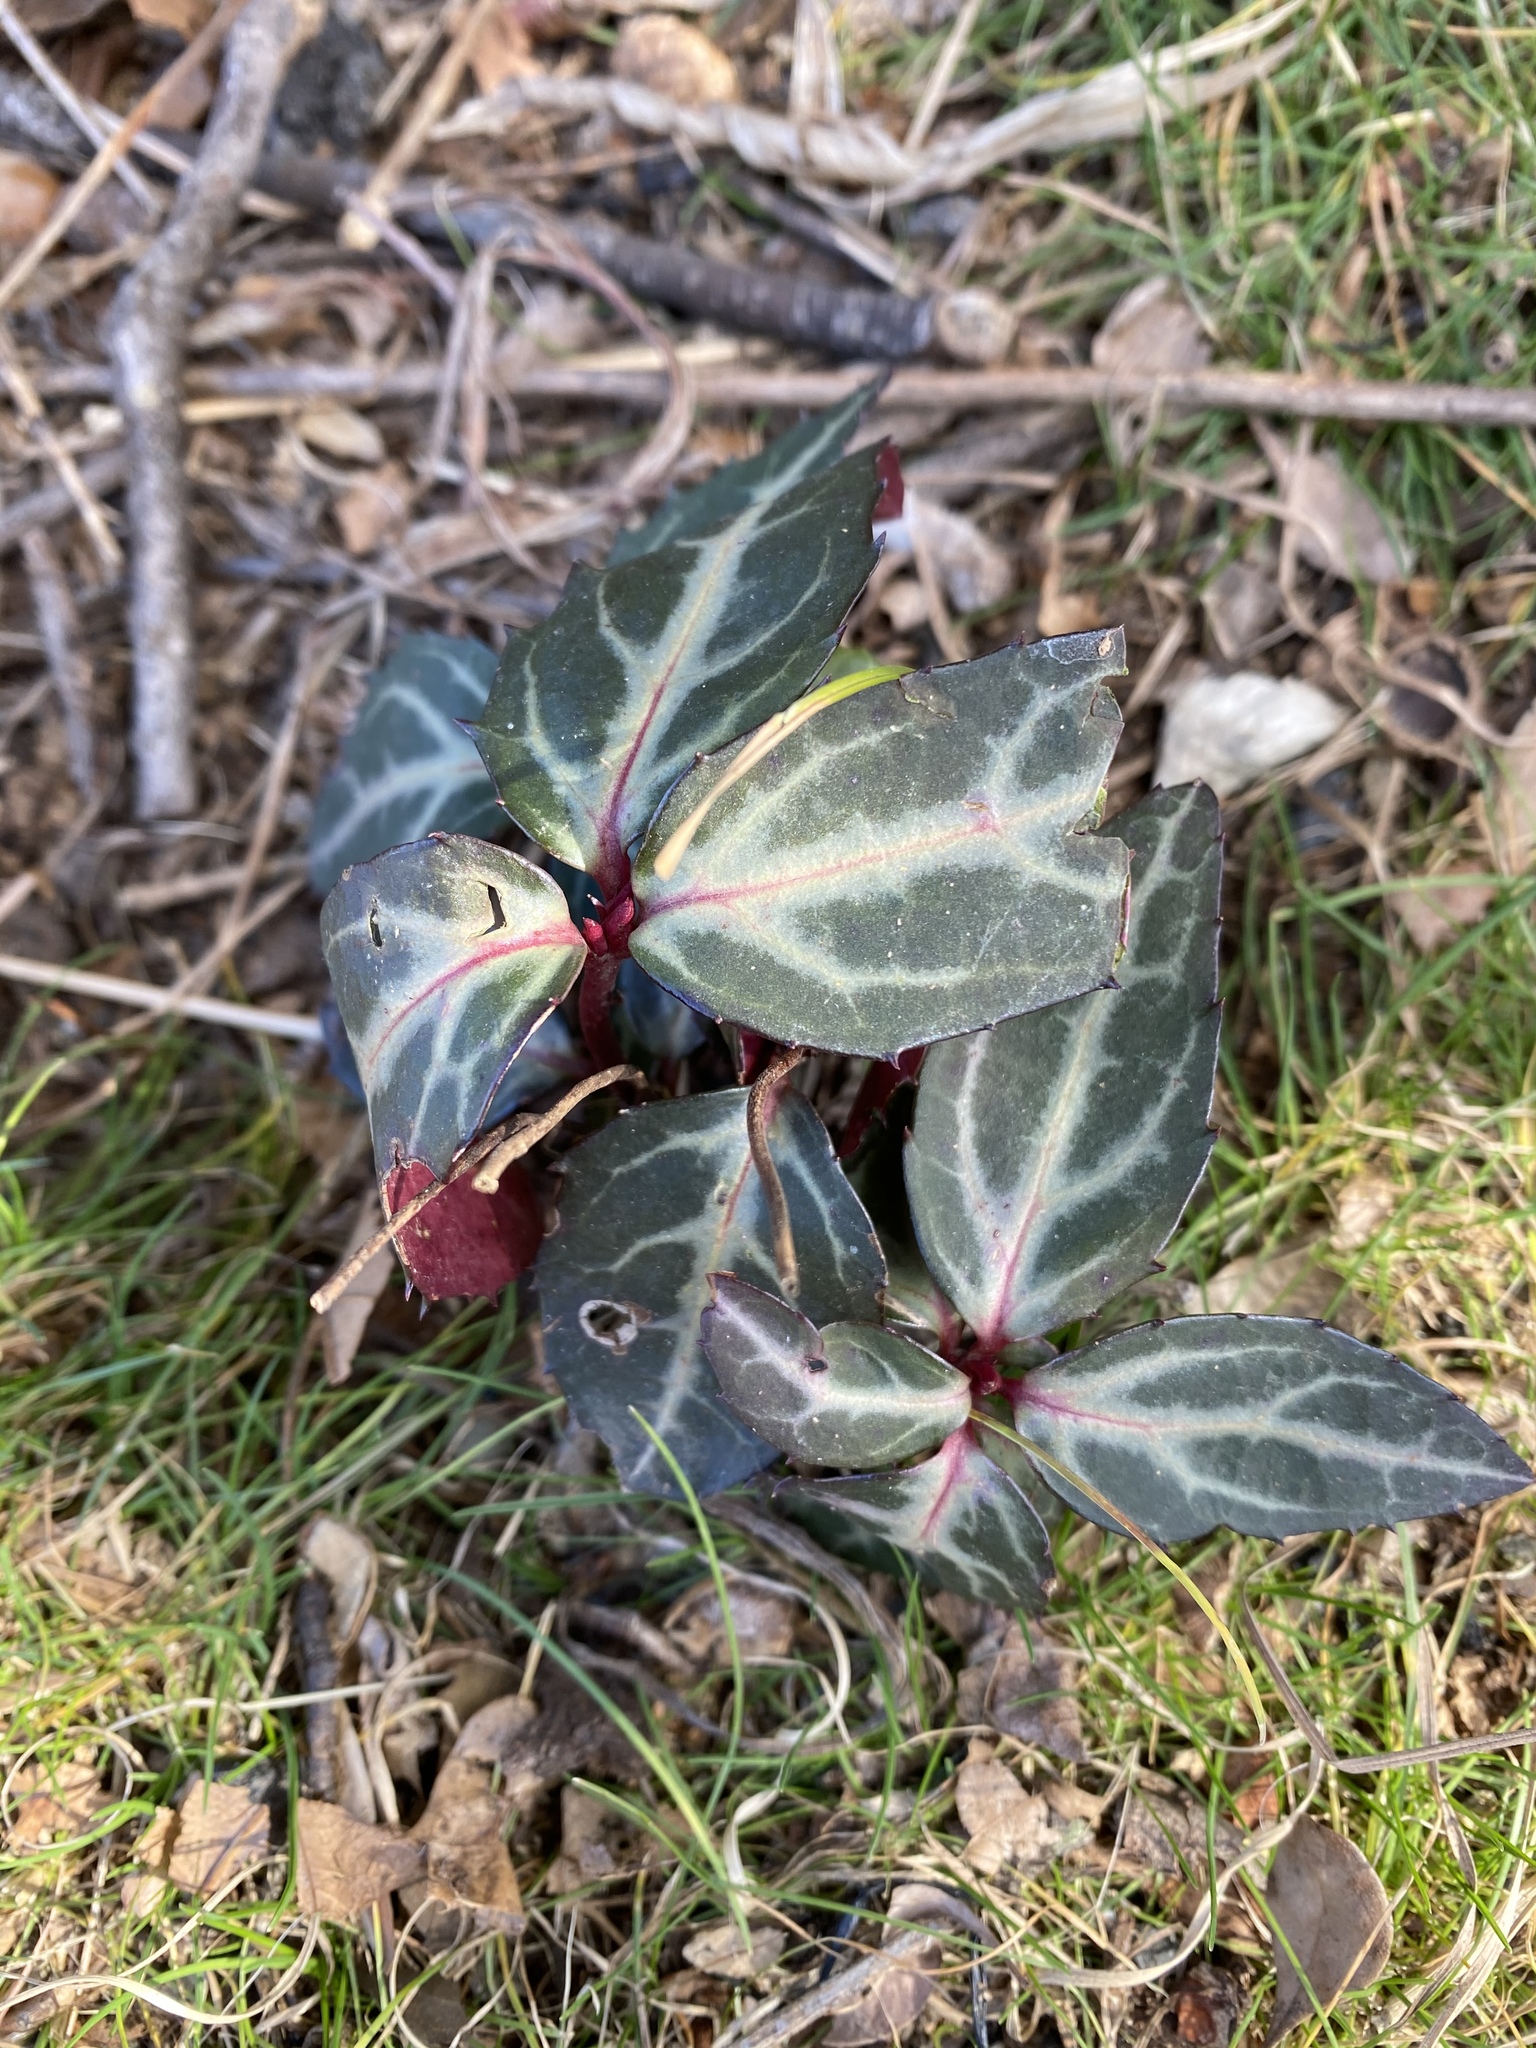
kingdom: Plantae
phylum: Tracheophyta
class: Magnoliopsida
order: Ericales
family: Ericaceae
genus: Chimaphila
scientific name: Chimaphila maculata
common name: Spotted pipsissewa
